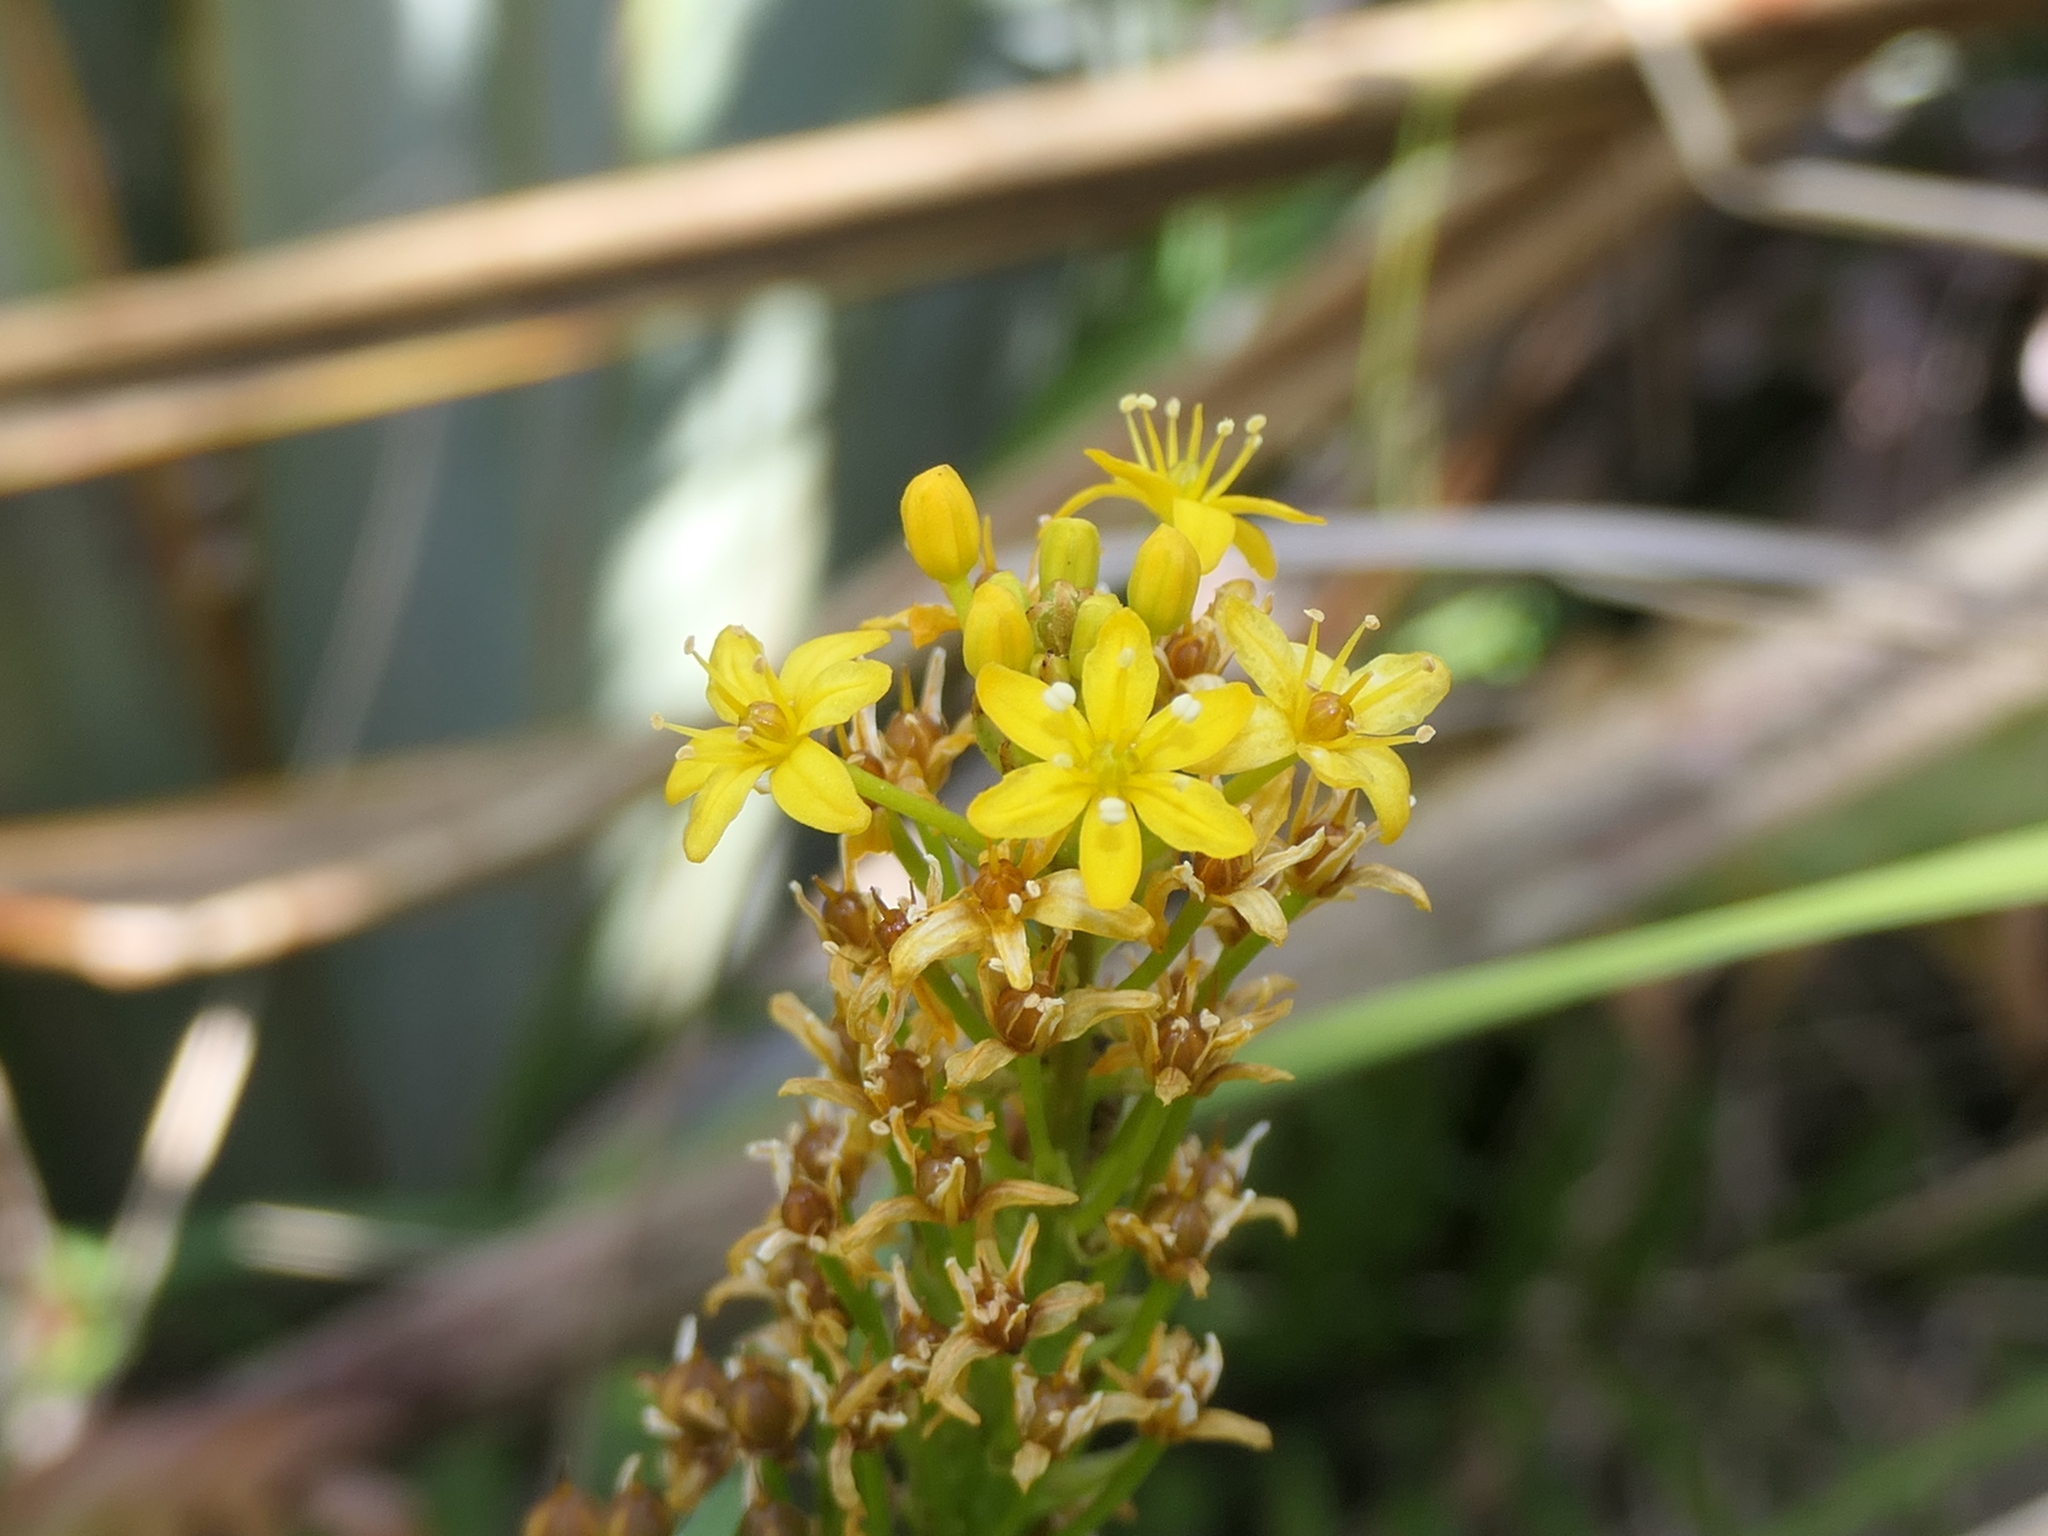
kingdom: Plantae
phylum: Tracheophyta
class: Liliopsida
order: Asparagales
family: Asphodelaceae
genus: Bulbinella
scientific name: Bulbinella angustifolia
